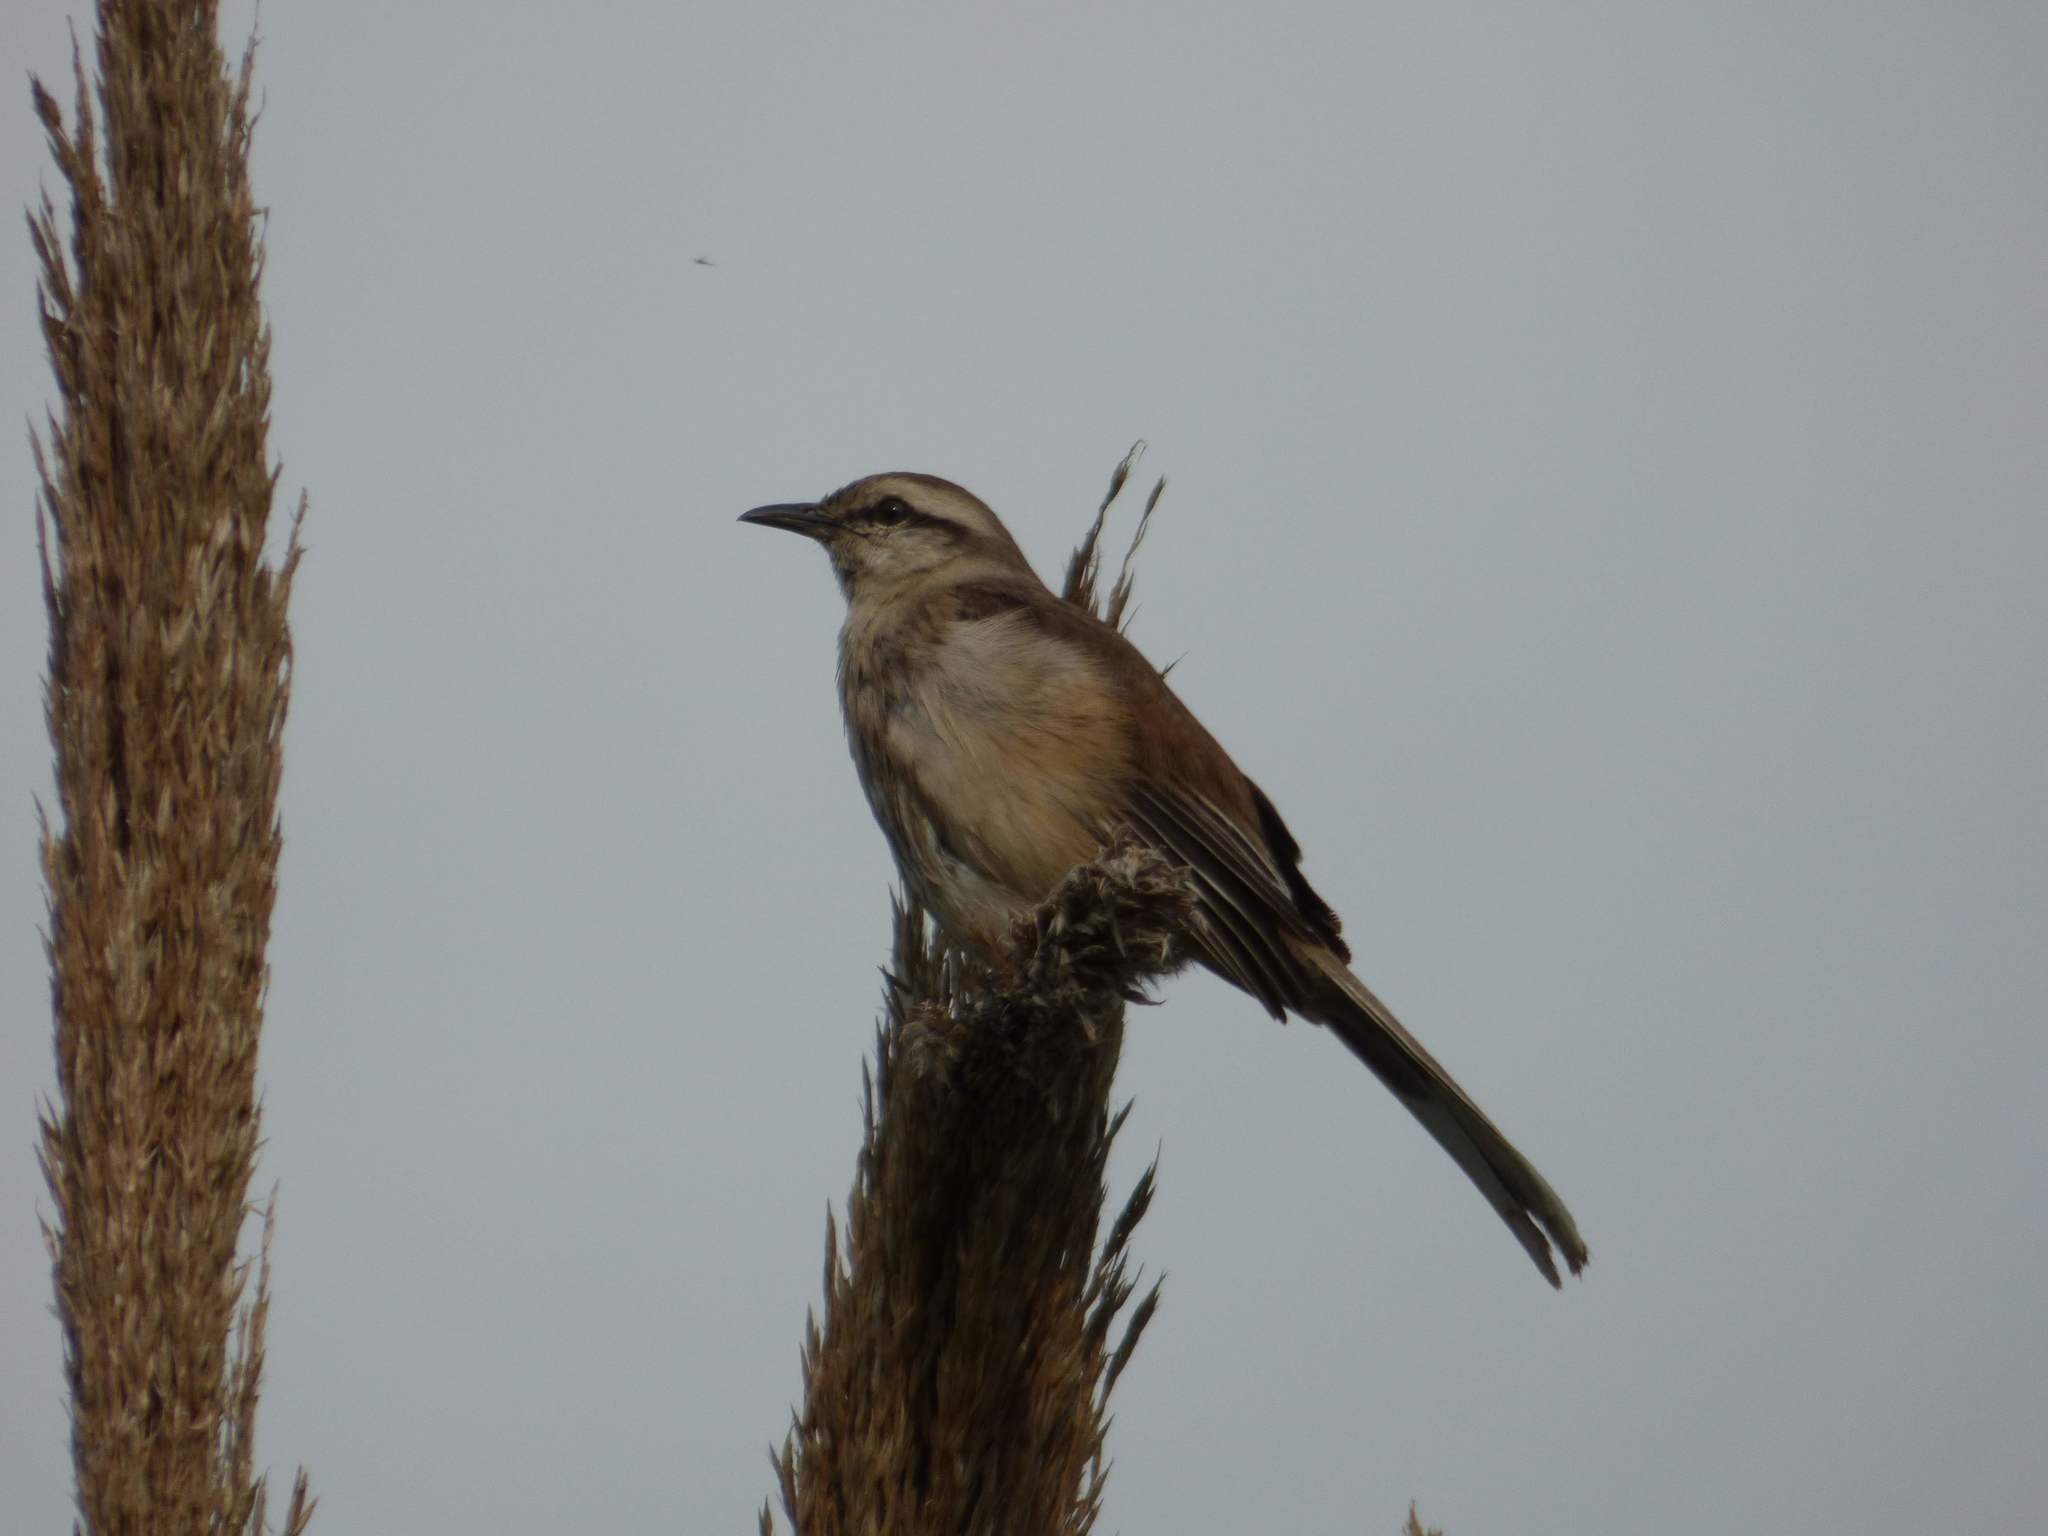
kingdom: Animalia
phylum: Chordata
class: Aves
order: Passeriformes
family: Mimidae
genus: Mimus
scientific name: Mimus saturninus
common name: Chalk-browed mockingbird
